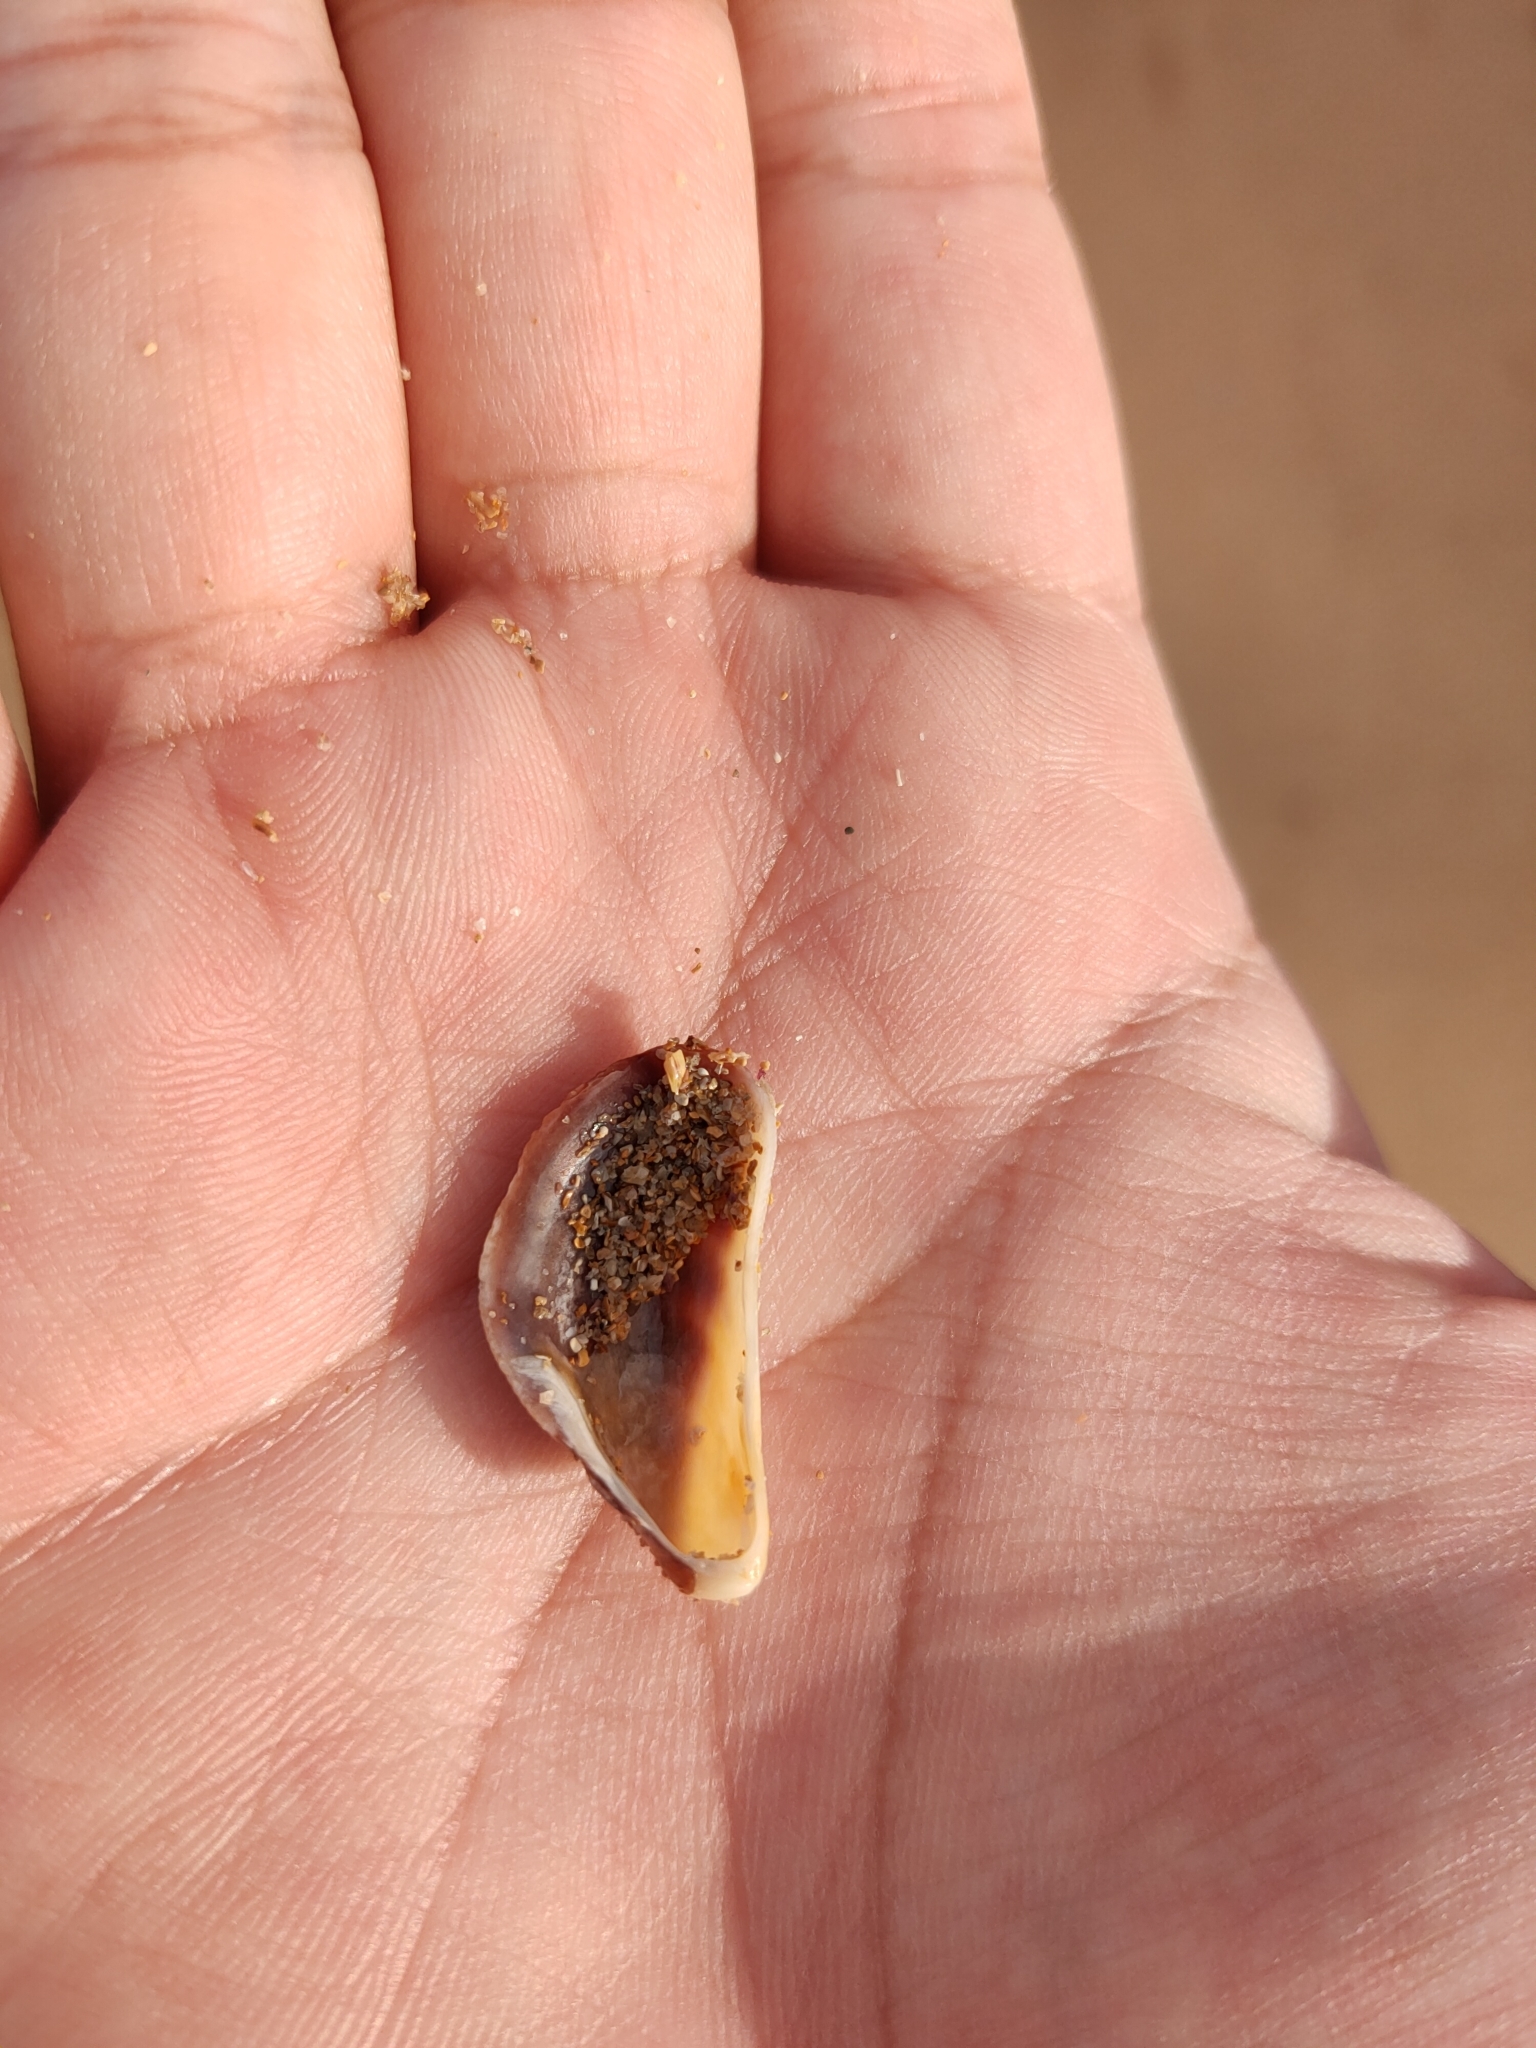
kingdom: Animalia
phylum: Mollusca
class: Bivalvia
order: Mytilida
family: Mytilidae
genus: Trichomya
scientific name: Trichomya hirsuta
